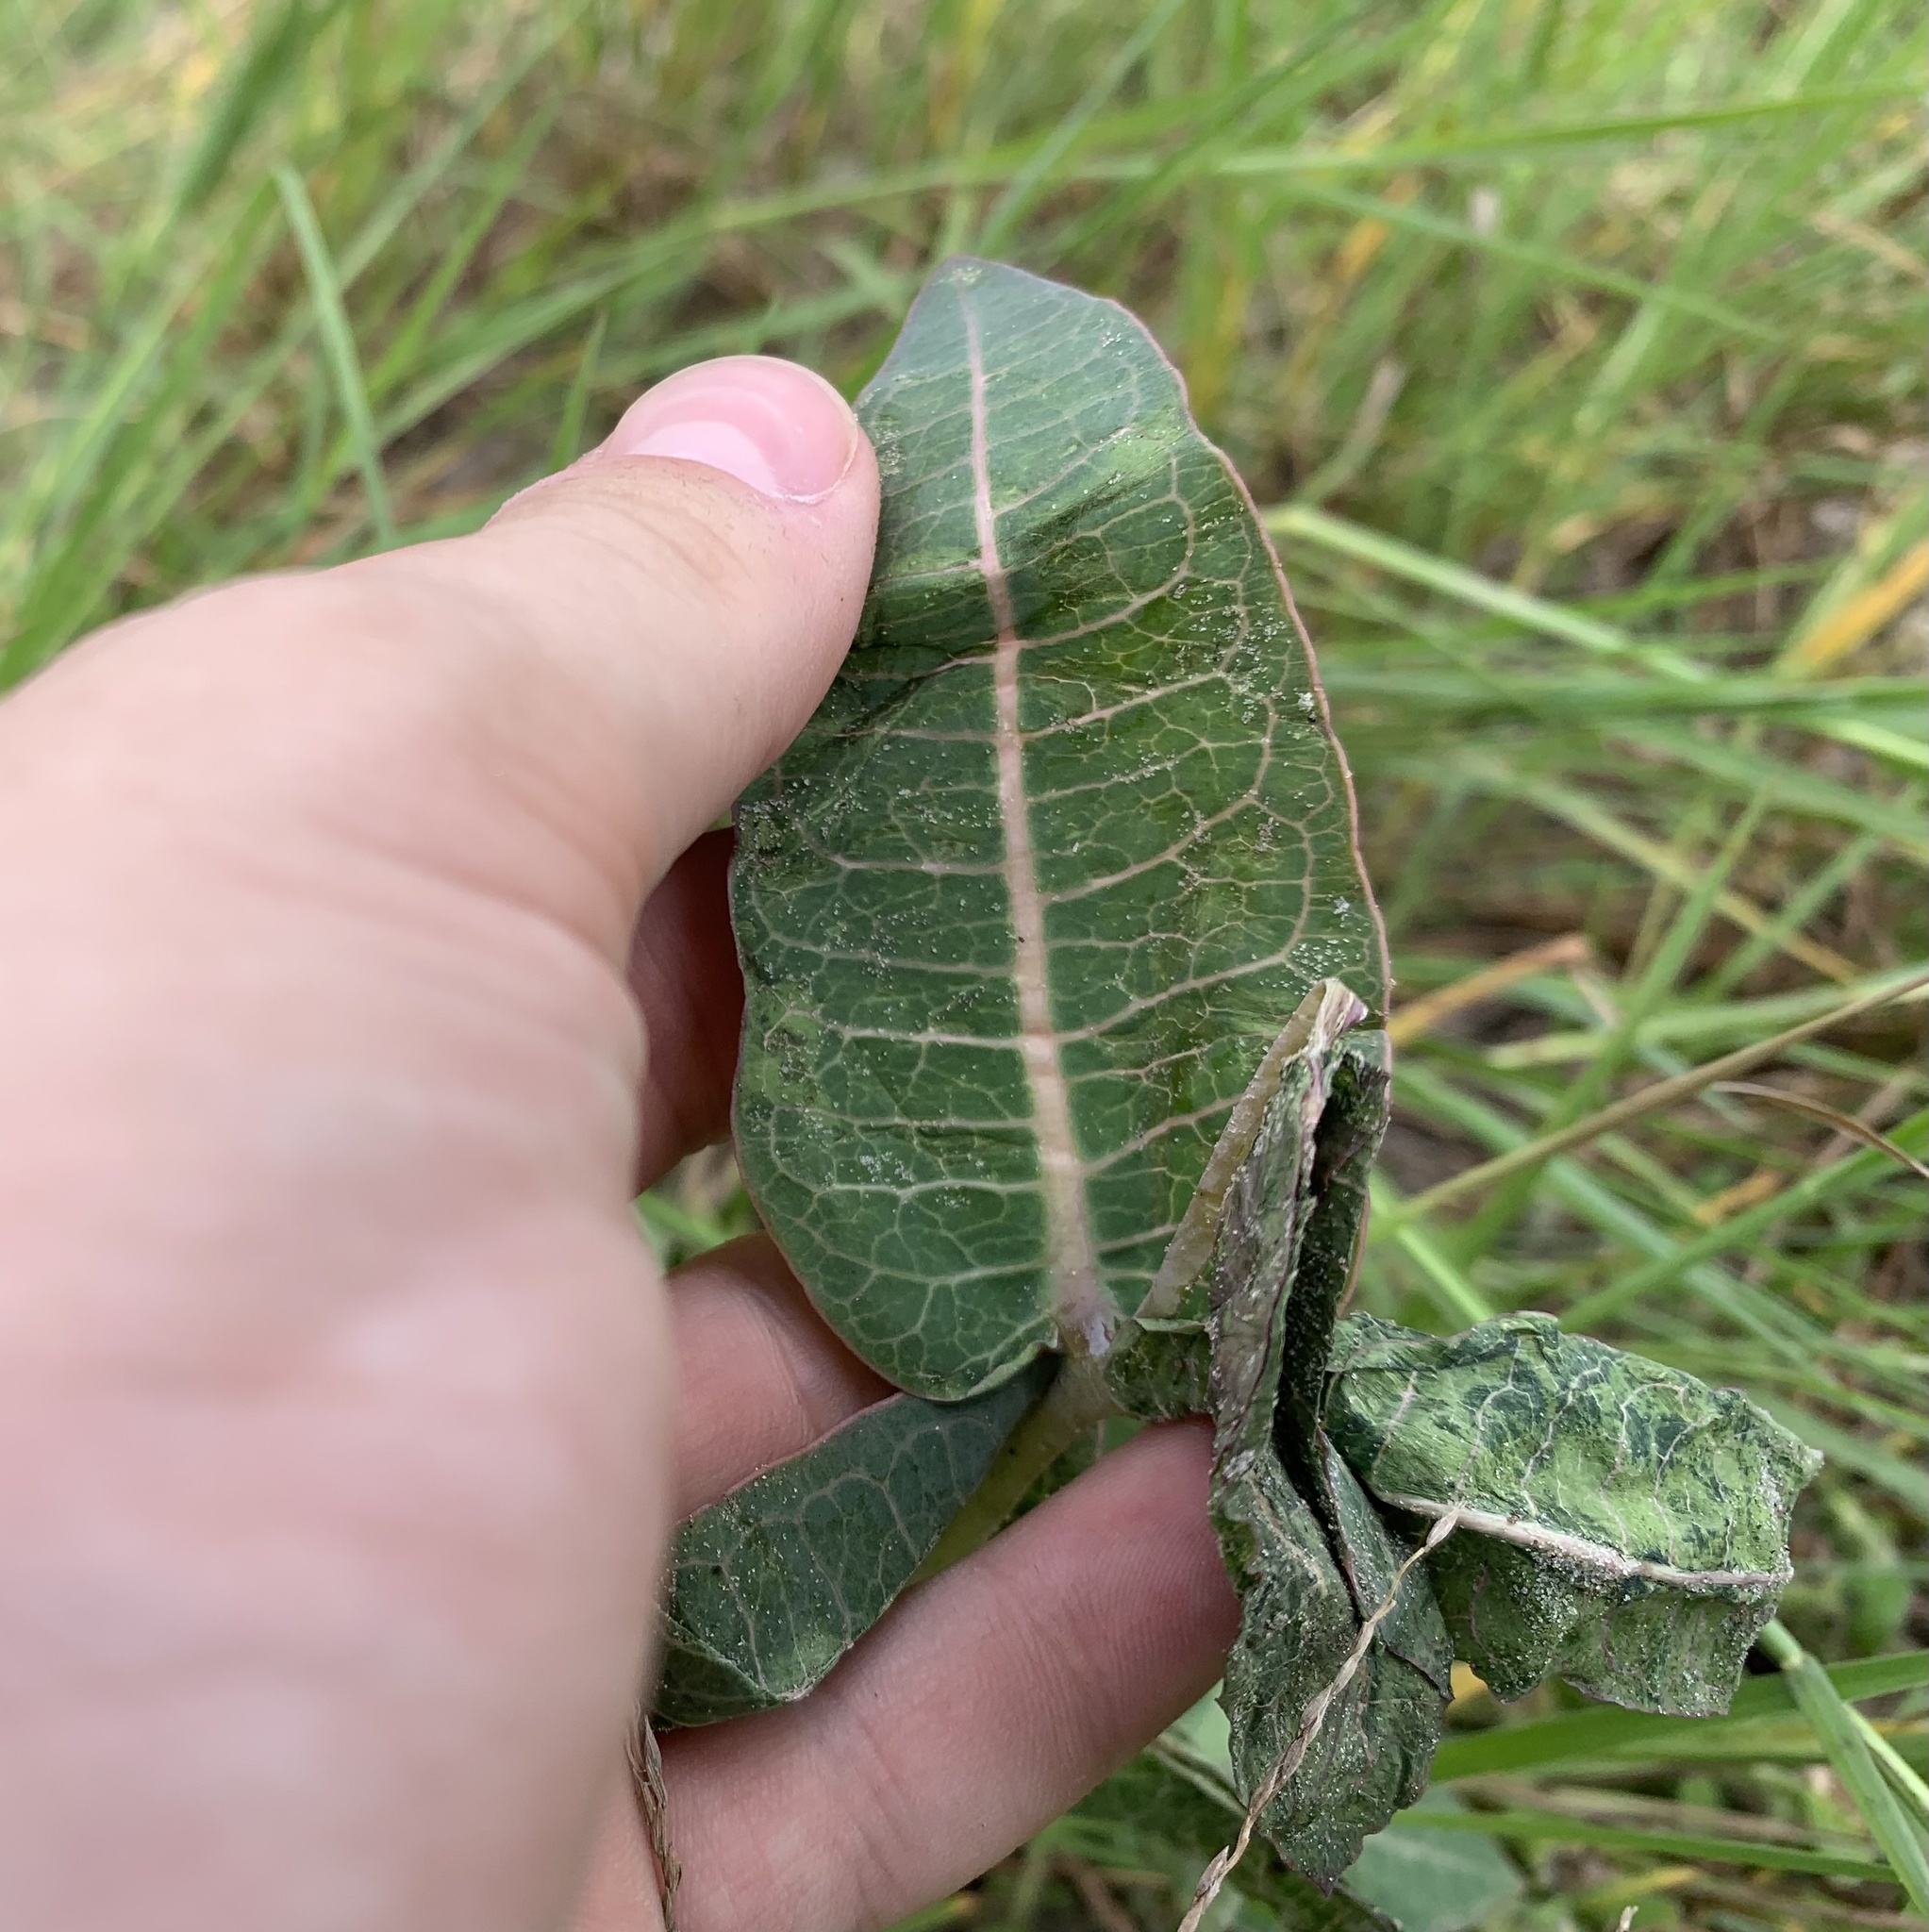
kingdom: Plantae
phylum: Tracheophyta
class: Magnoliopsida
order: Gentianales
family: Apocynaceae
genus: Asclepias
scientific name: Asclepias humistrata
